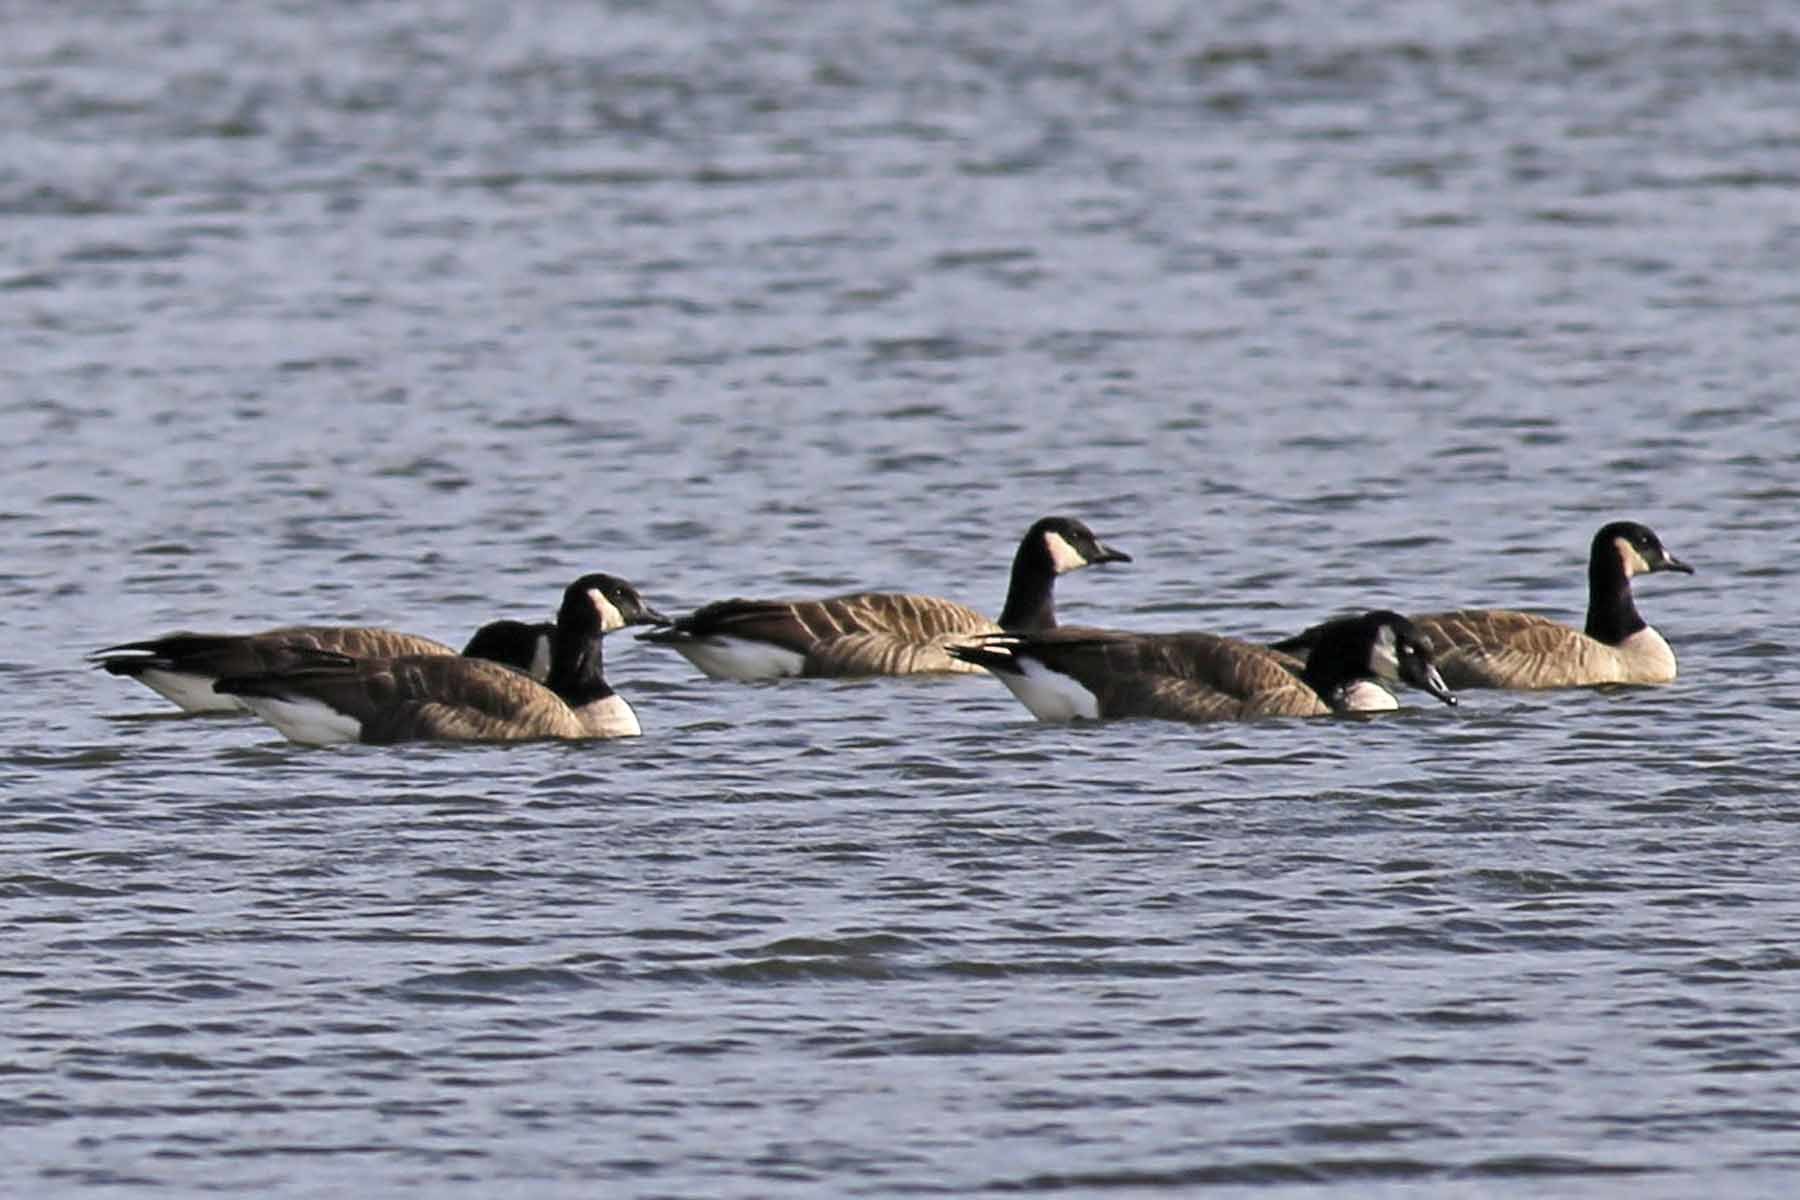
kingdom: Animalia
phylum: Chordata
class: Aves
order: Anseriformes
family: Anatidae
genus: Branta
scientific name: Branta canadensis
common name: Canada goose
